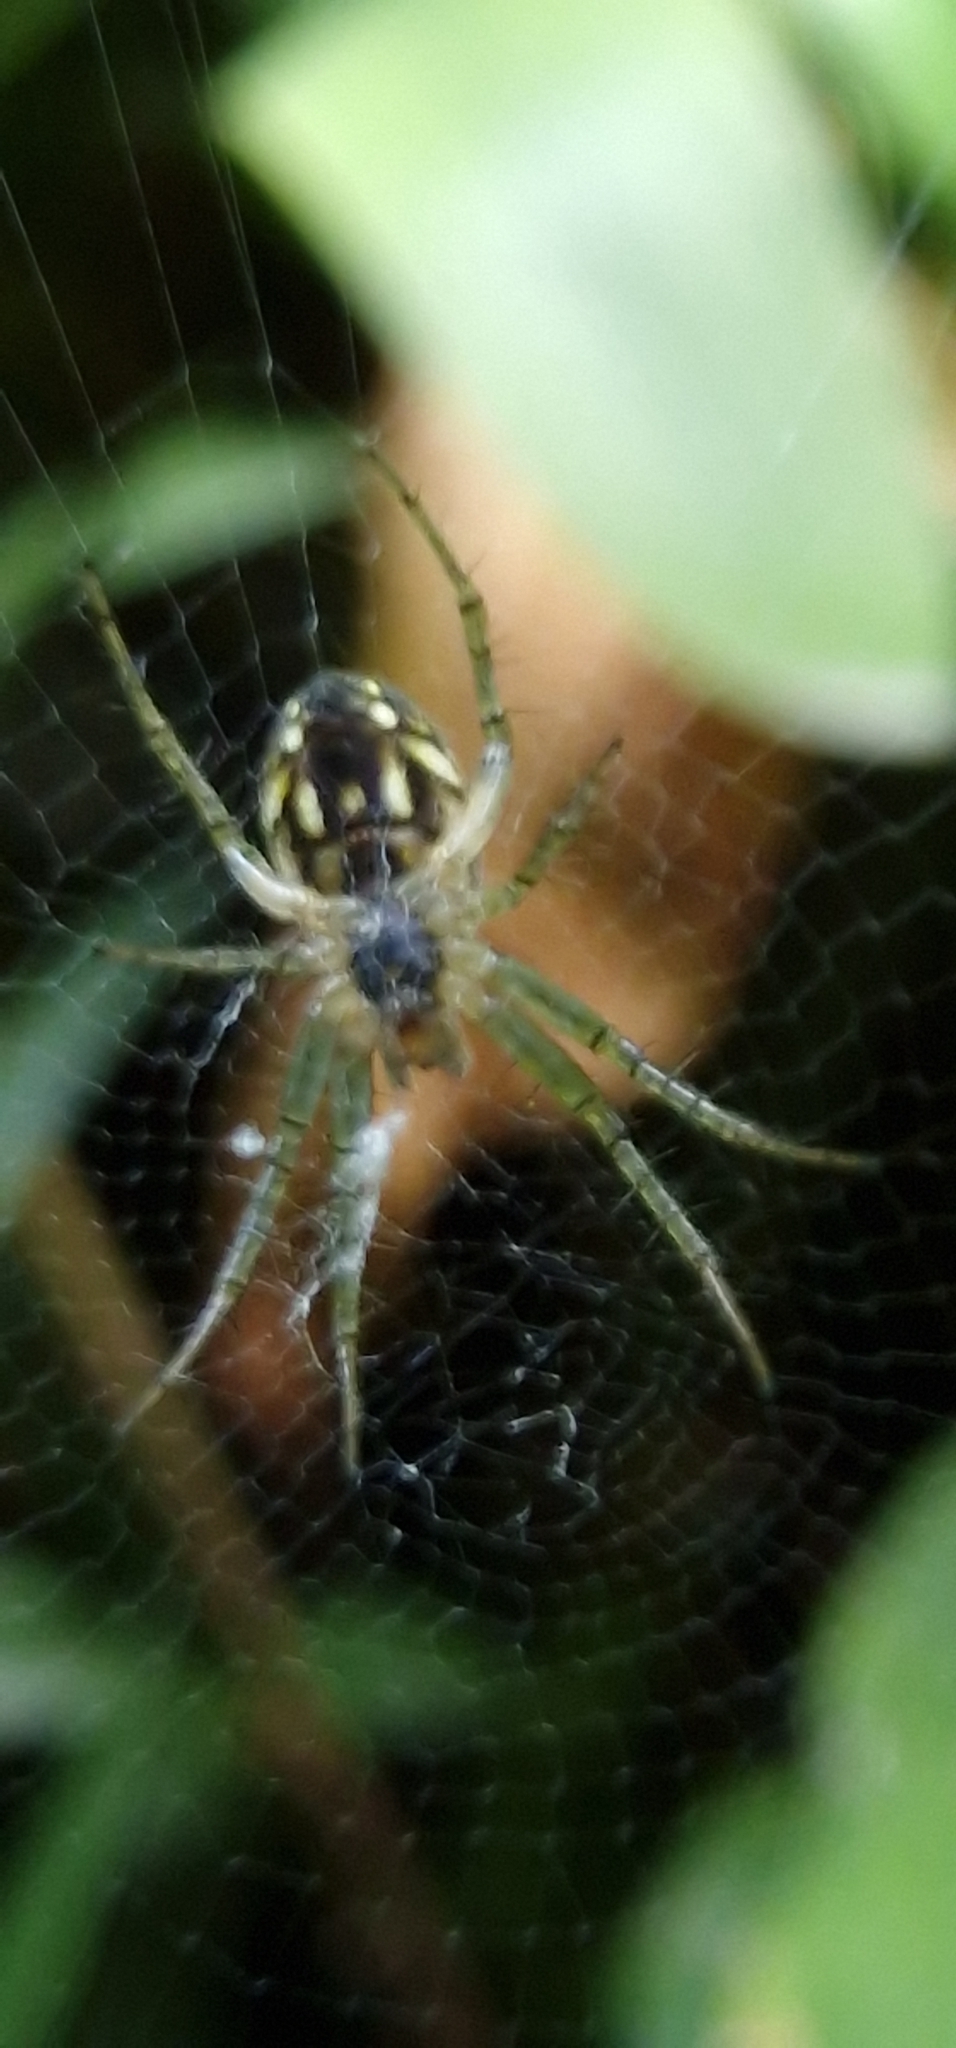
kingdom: Animalia
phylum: Arthropoda
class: Arachnida
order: Araneae
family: Araneidae
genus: Mangora
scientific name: Mangora acalypha
